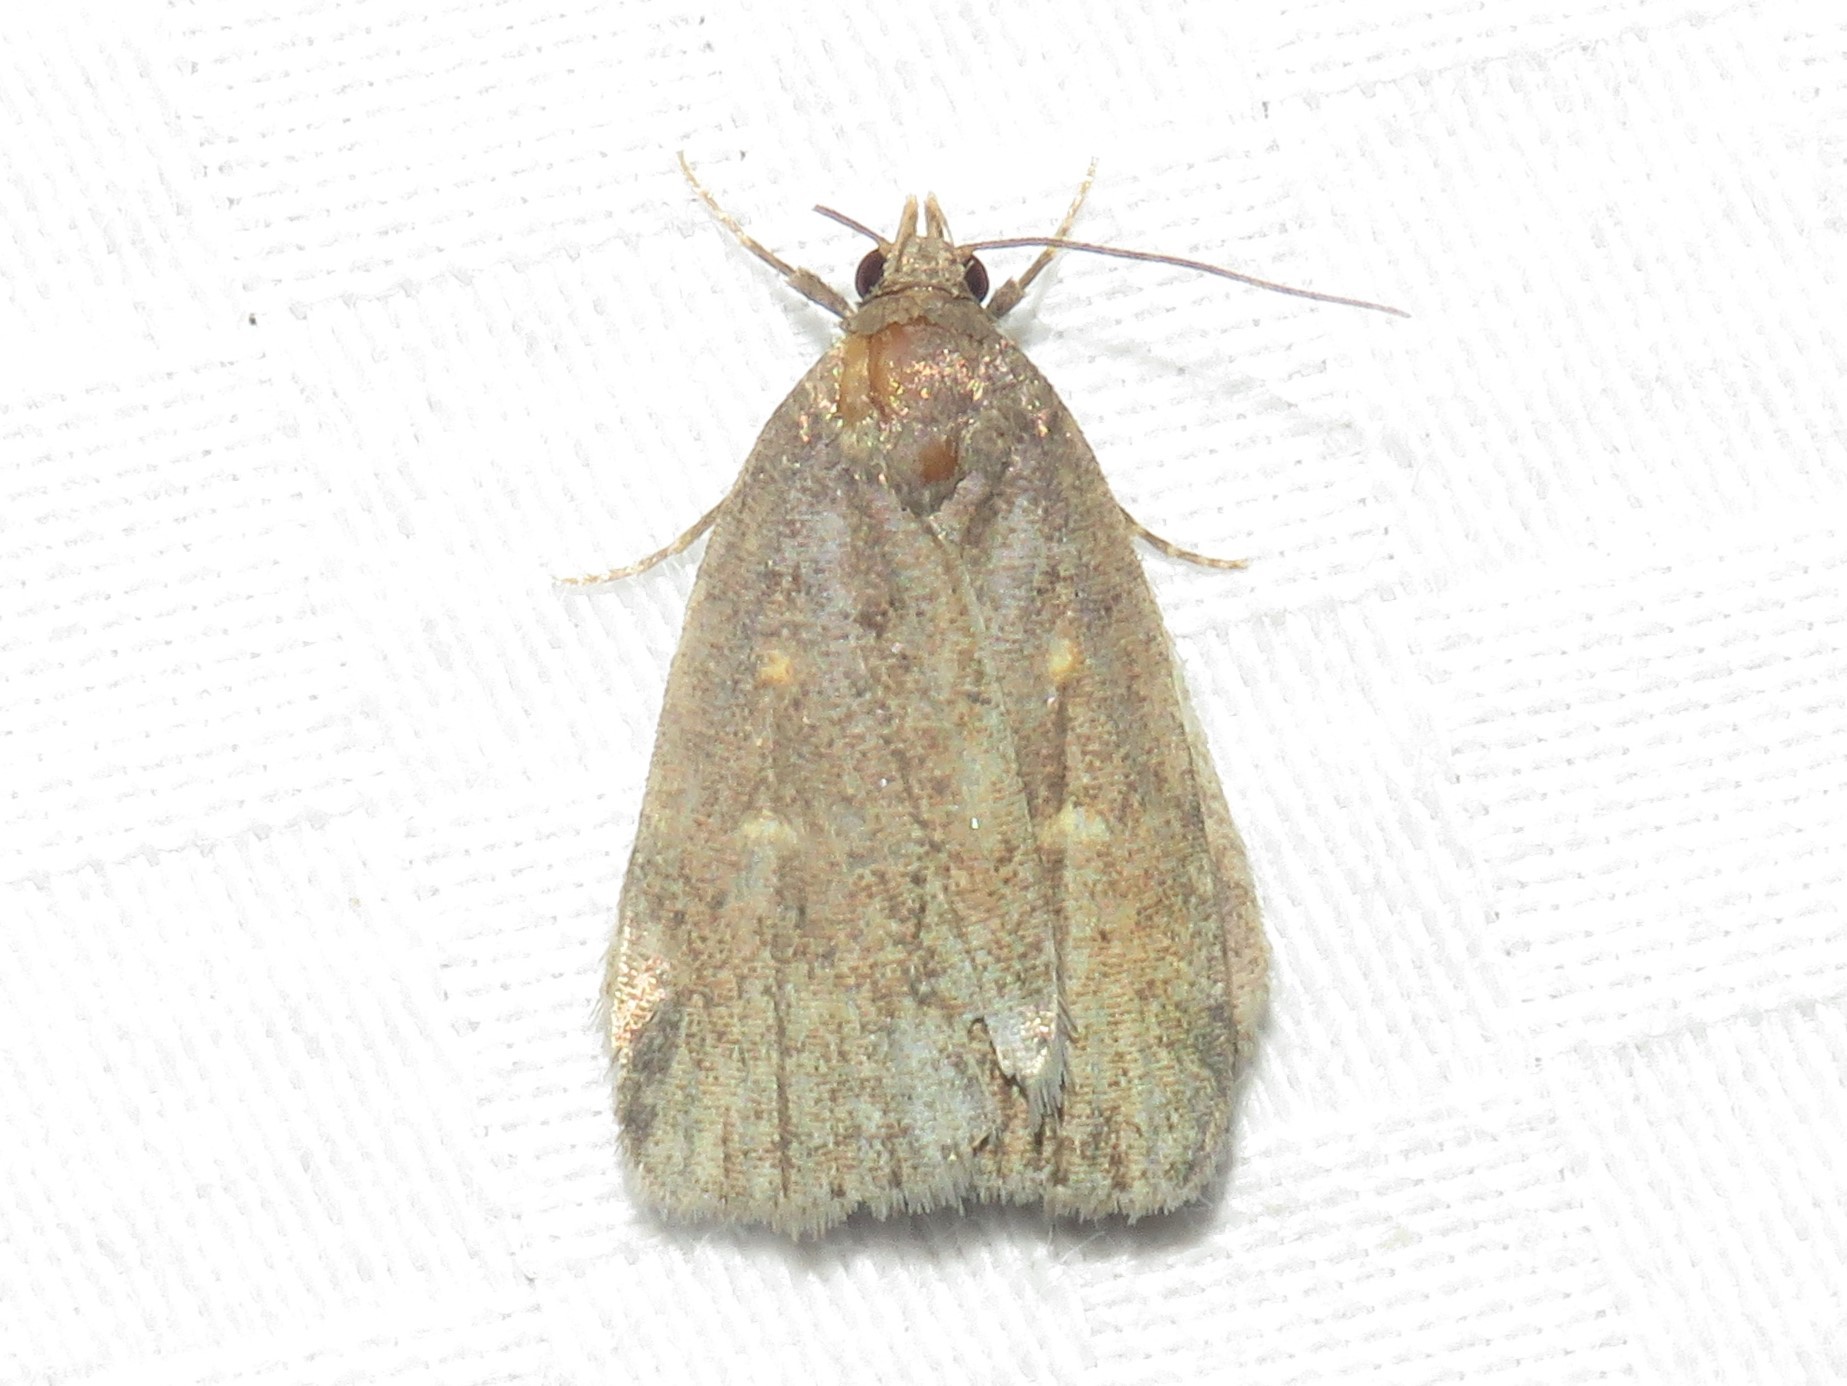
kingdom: Animalia
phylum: Arthropoda
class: Insecta
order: Lepidoptera
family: Erebidae
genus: Idia
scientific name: Idia diminuendis
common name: Orange-spotted idia moth
